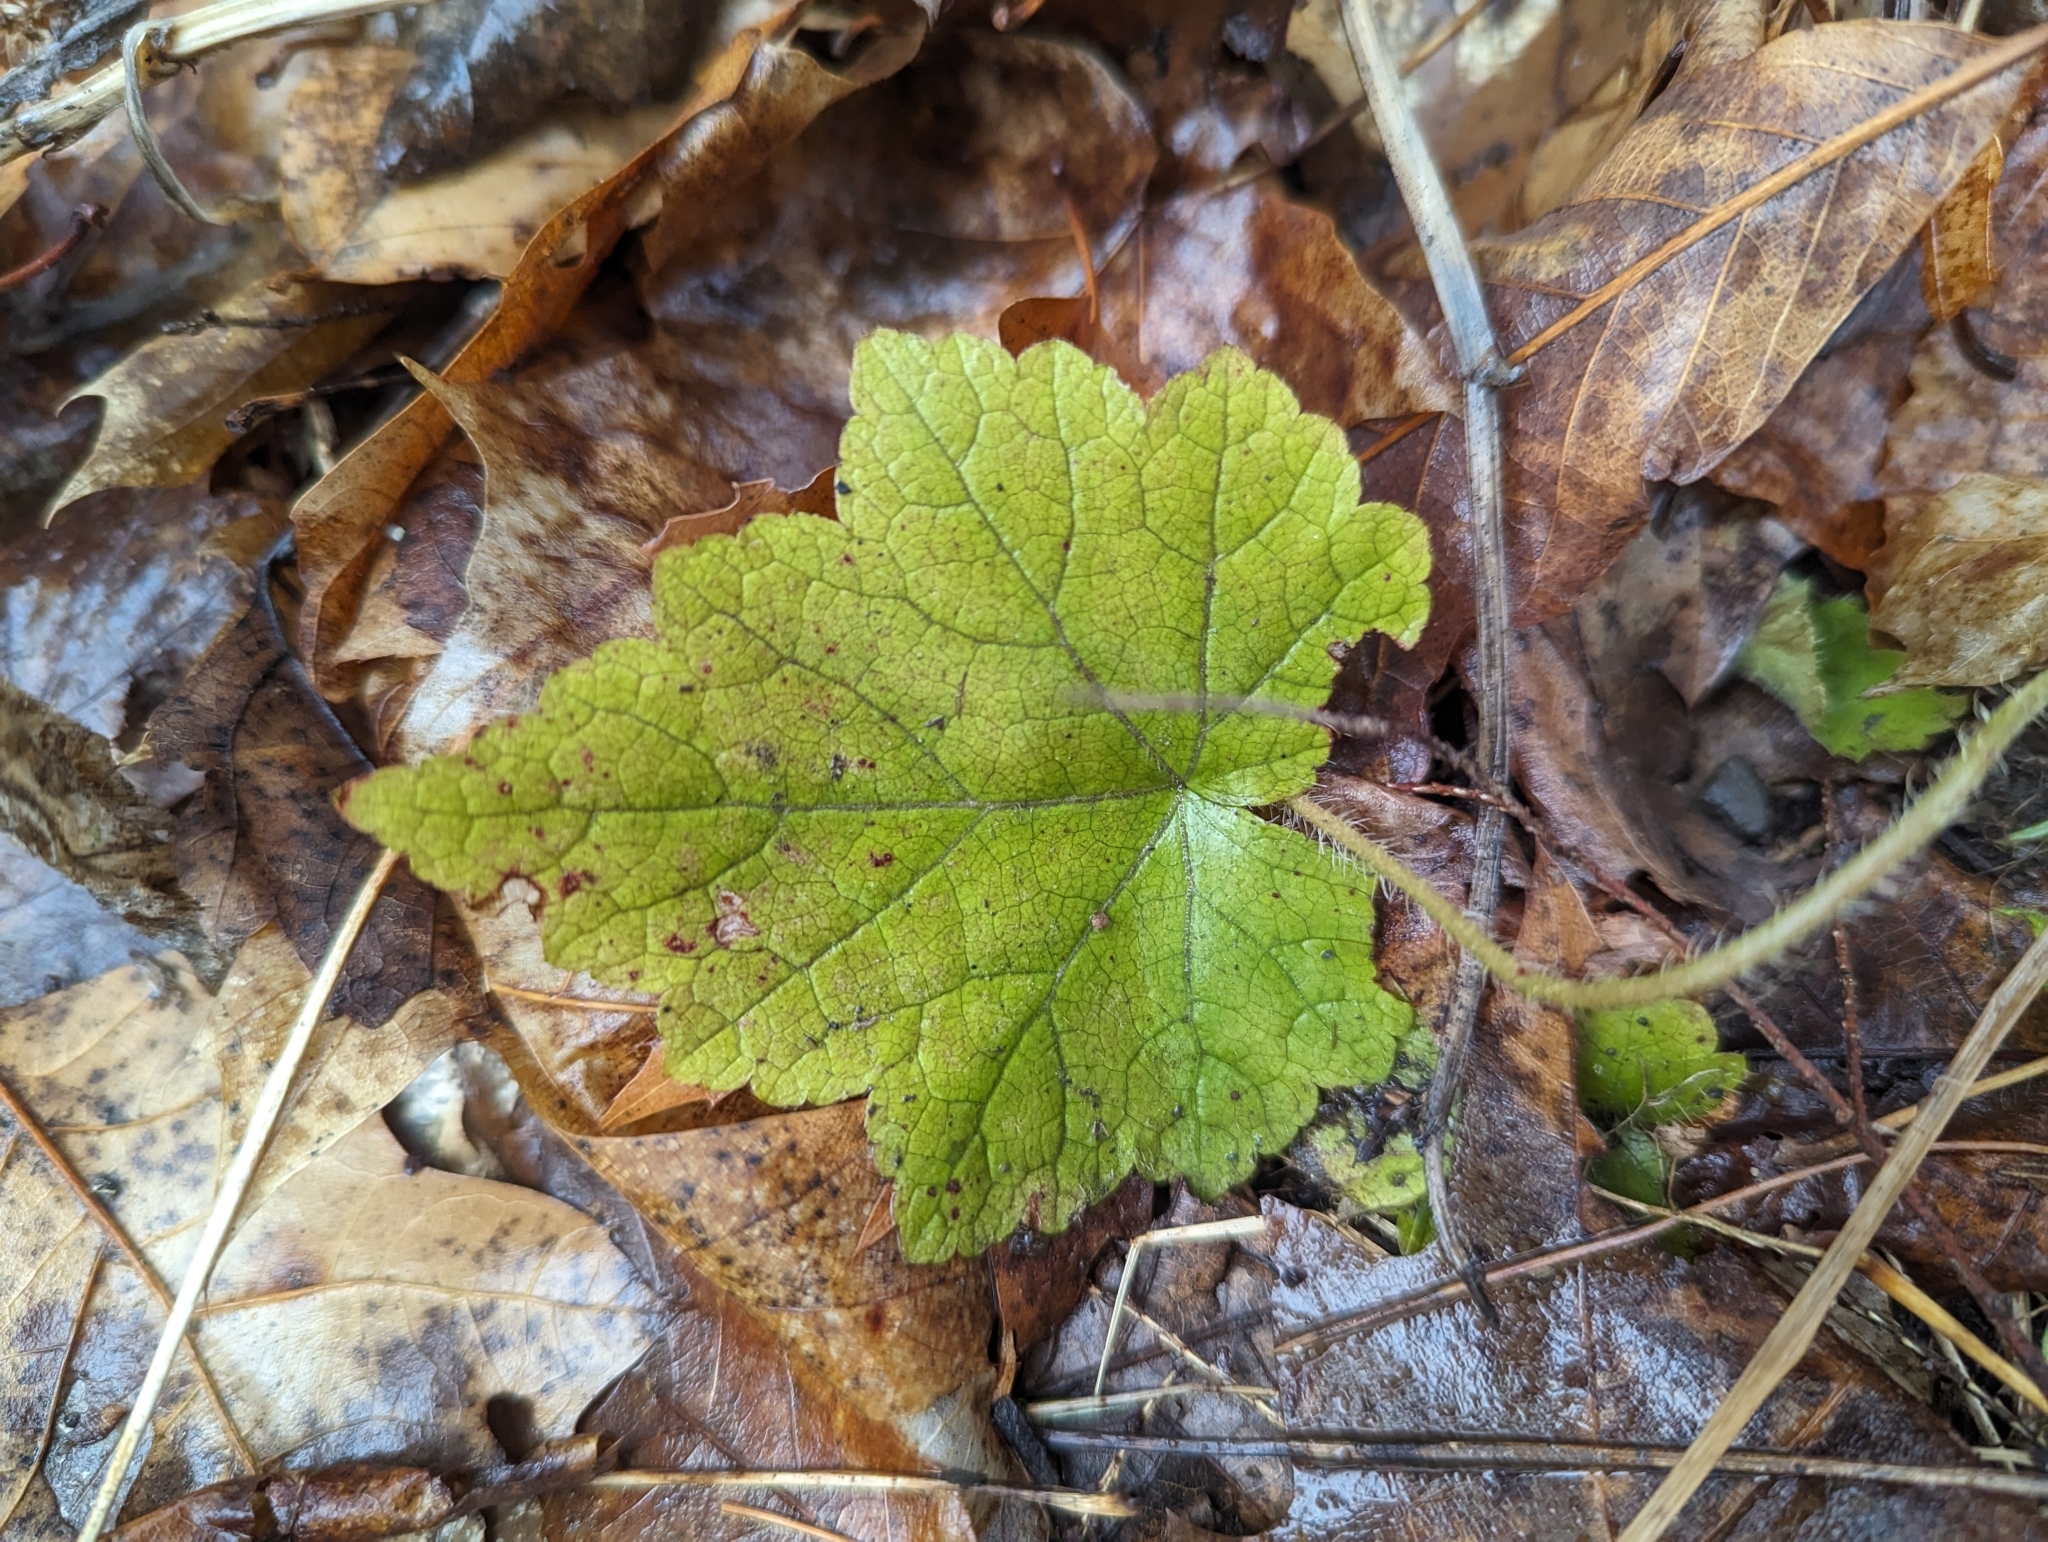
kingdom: Plantae
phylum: Tracheophyta
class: Magnoliopsida
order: Saxifragales
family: Saxifragaceae
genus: Tiarella
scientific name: Tiarella stolonifera
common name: Stoloniferous foamflower
